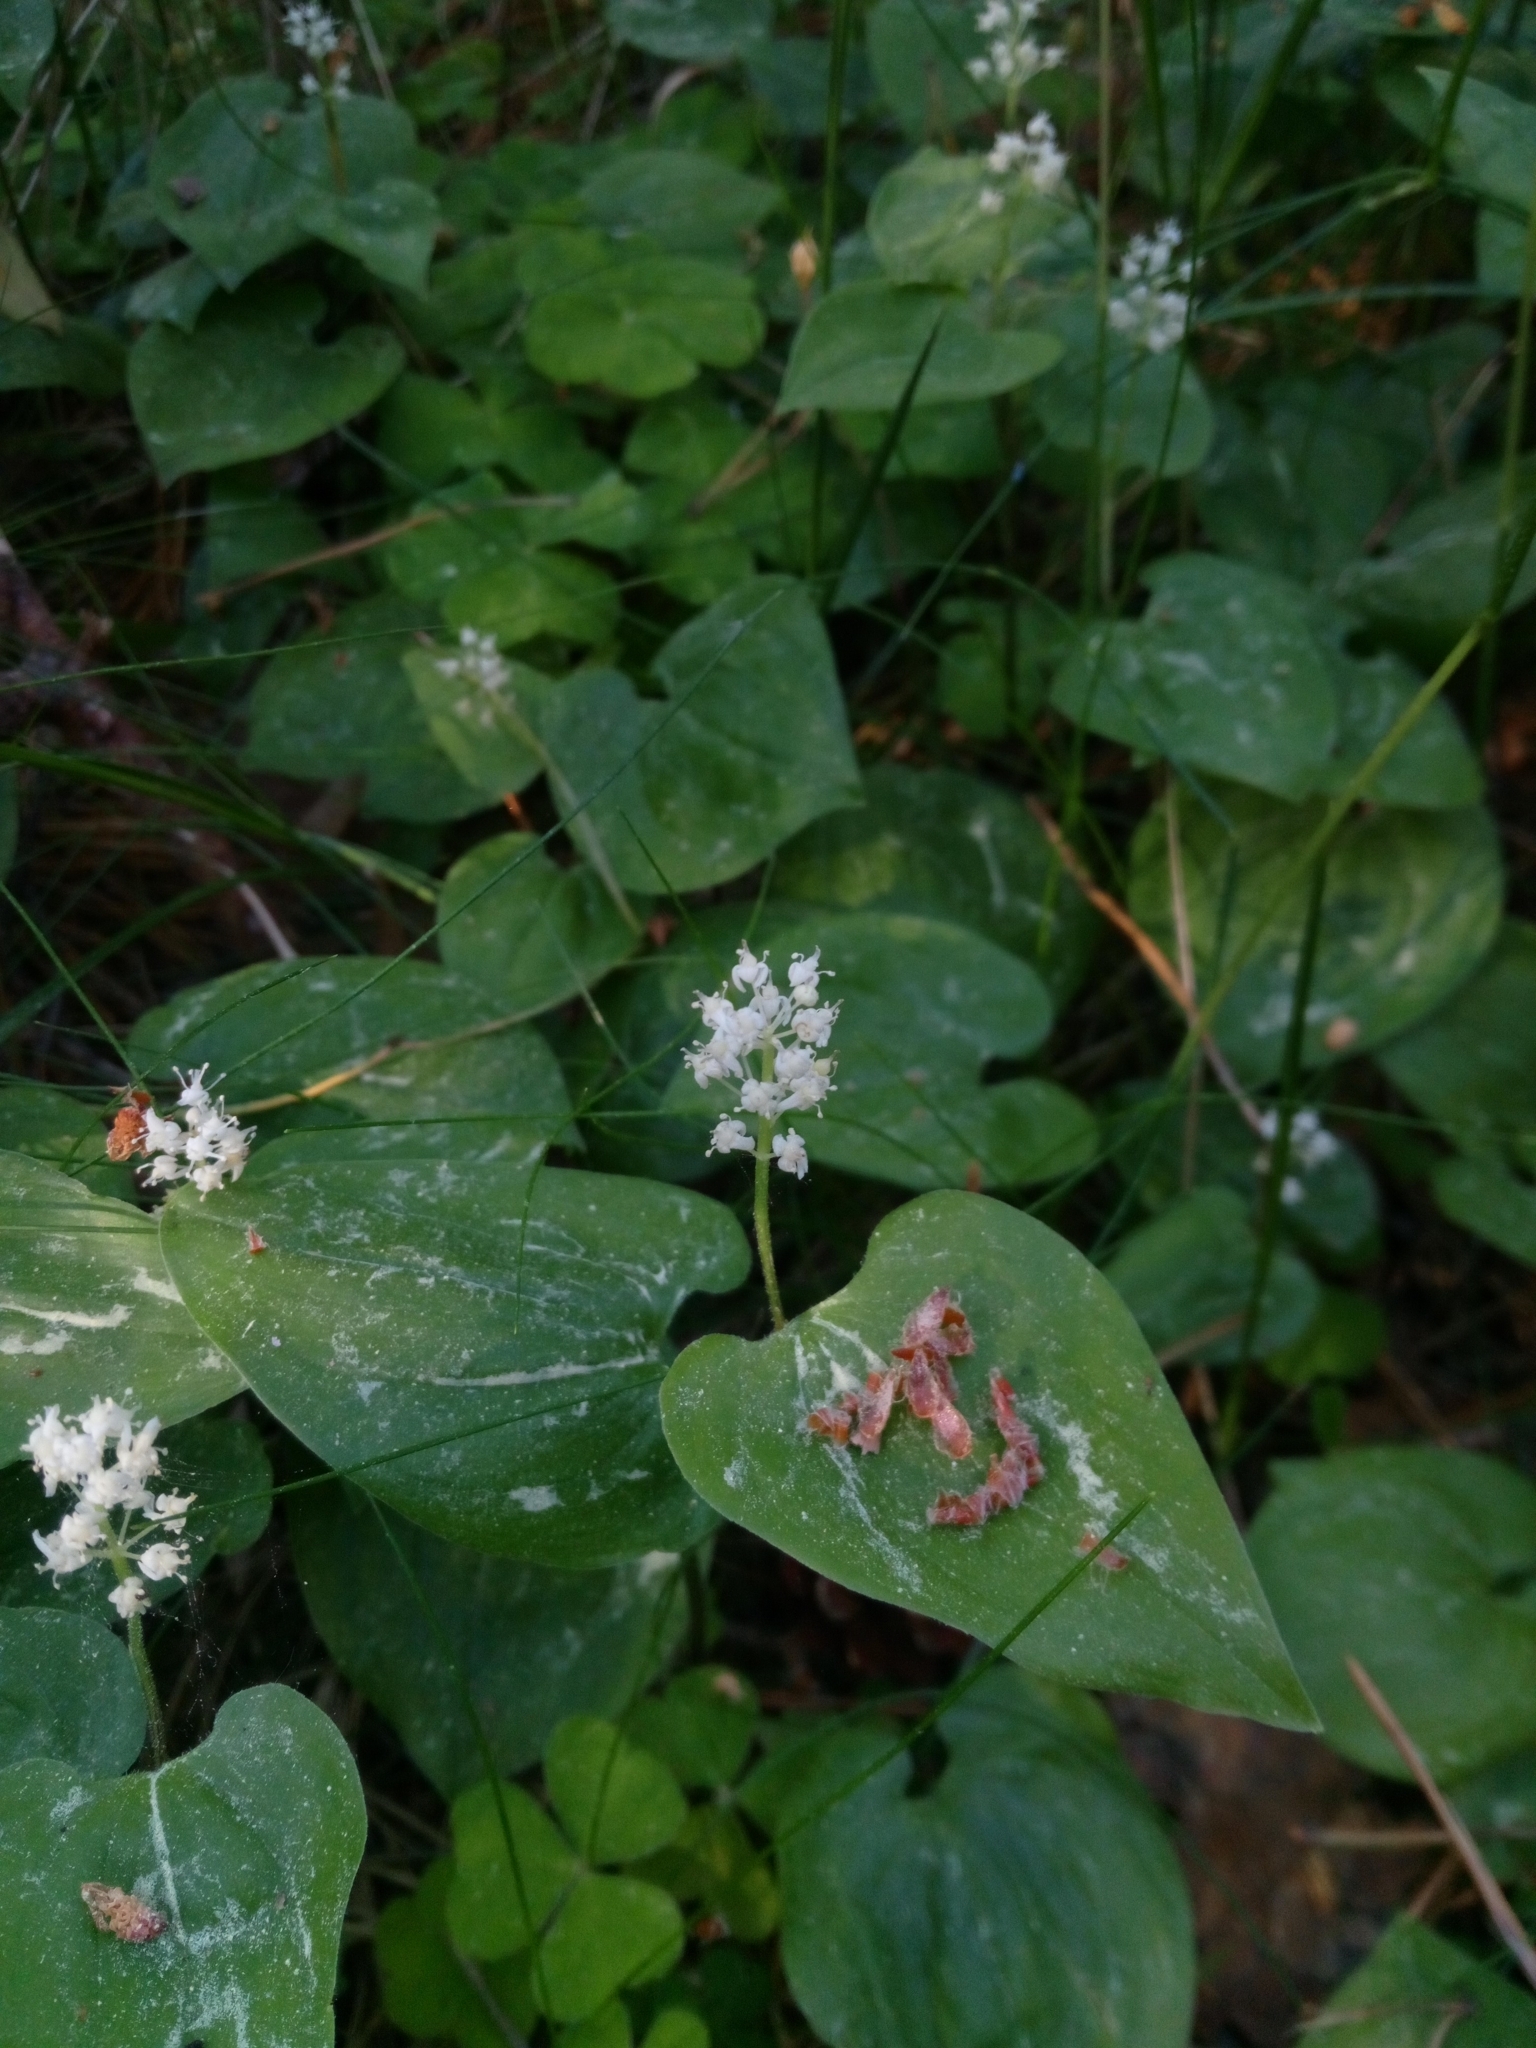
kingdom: Plantae
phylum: Tracheophyta
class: Liliopsida
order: Asparagales
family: Asparagaceae
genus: Maianthemum
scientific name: Maianthemum bifolium
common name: May lily
